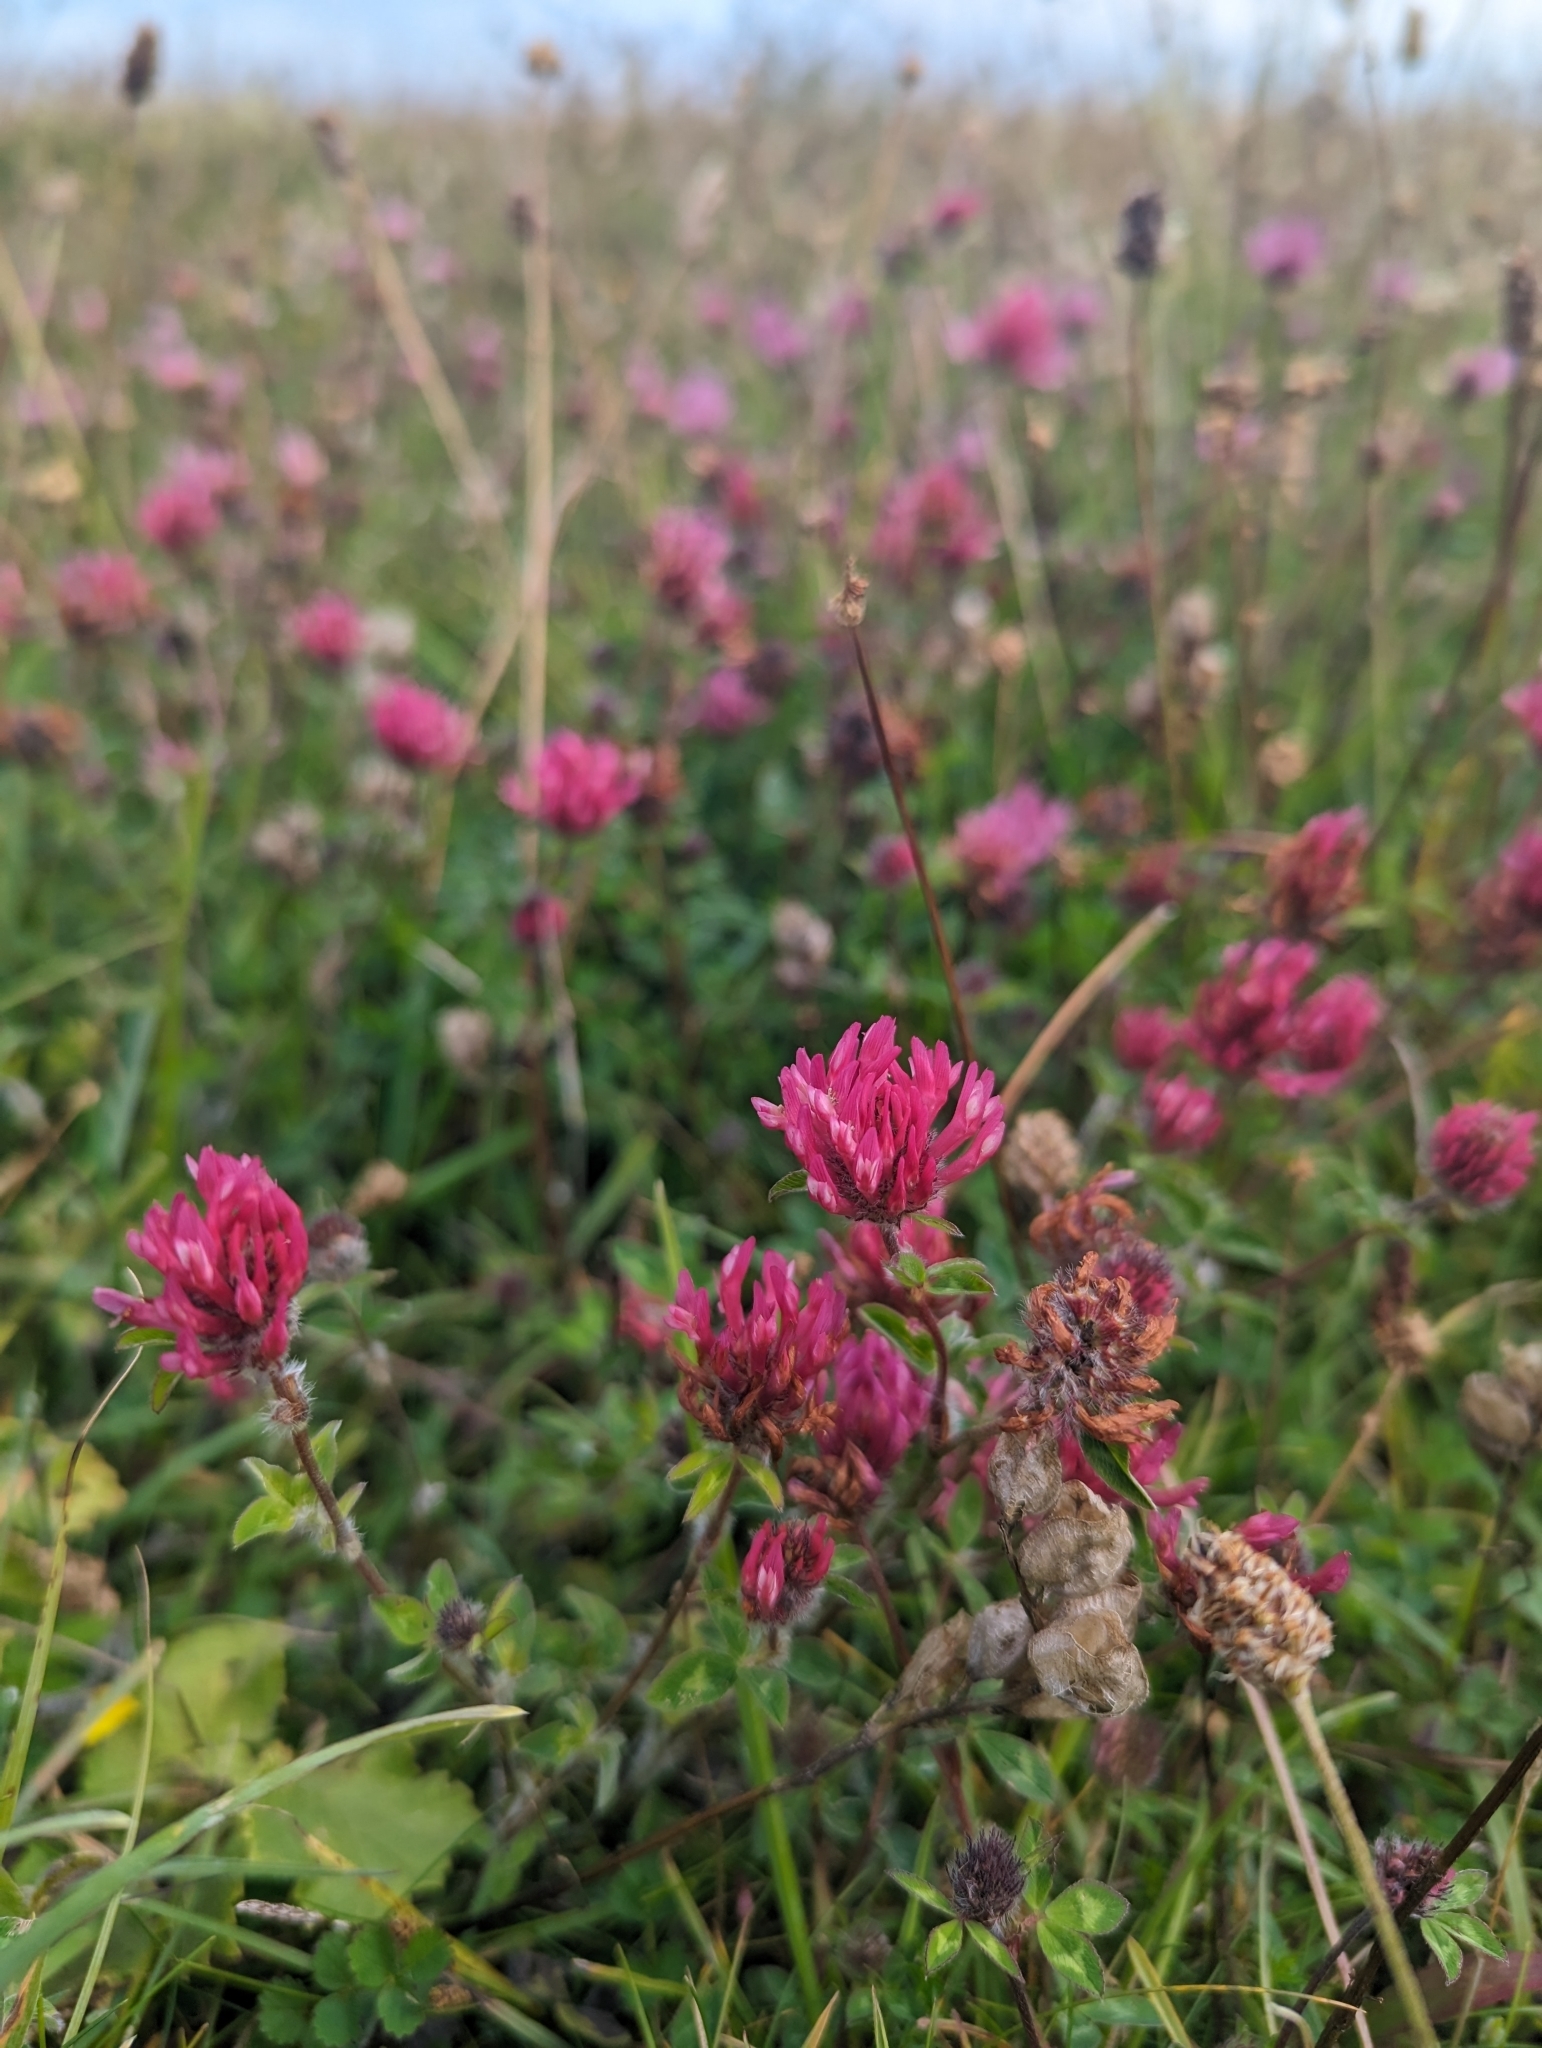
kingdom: Plantae
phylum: Tracheophyta
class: Magnoliopsida
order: Fabales
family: Fabaceae
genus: Trifolium
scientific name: Trifolium pratense
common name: Red clover
